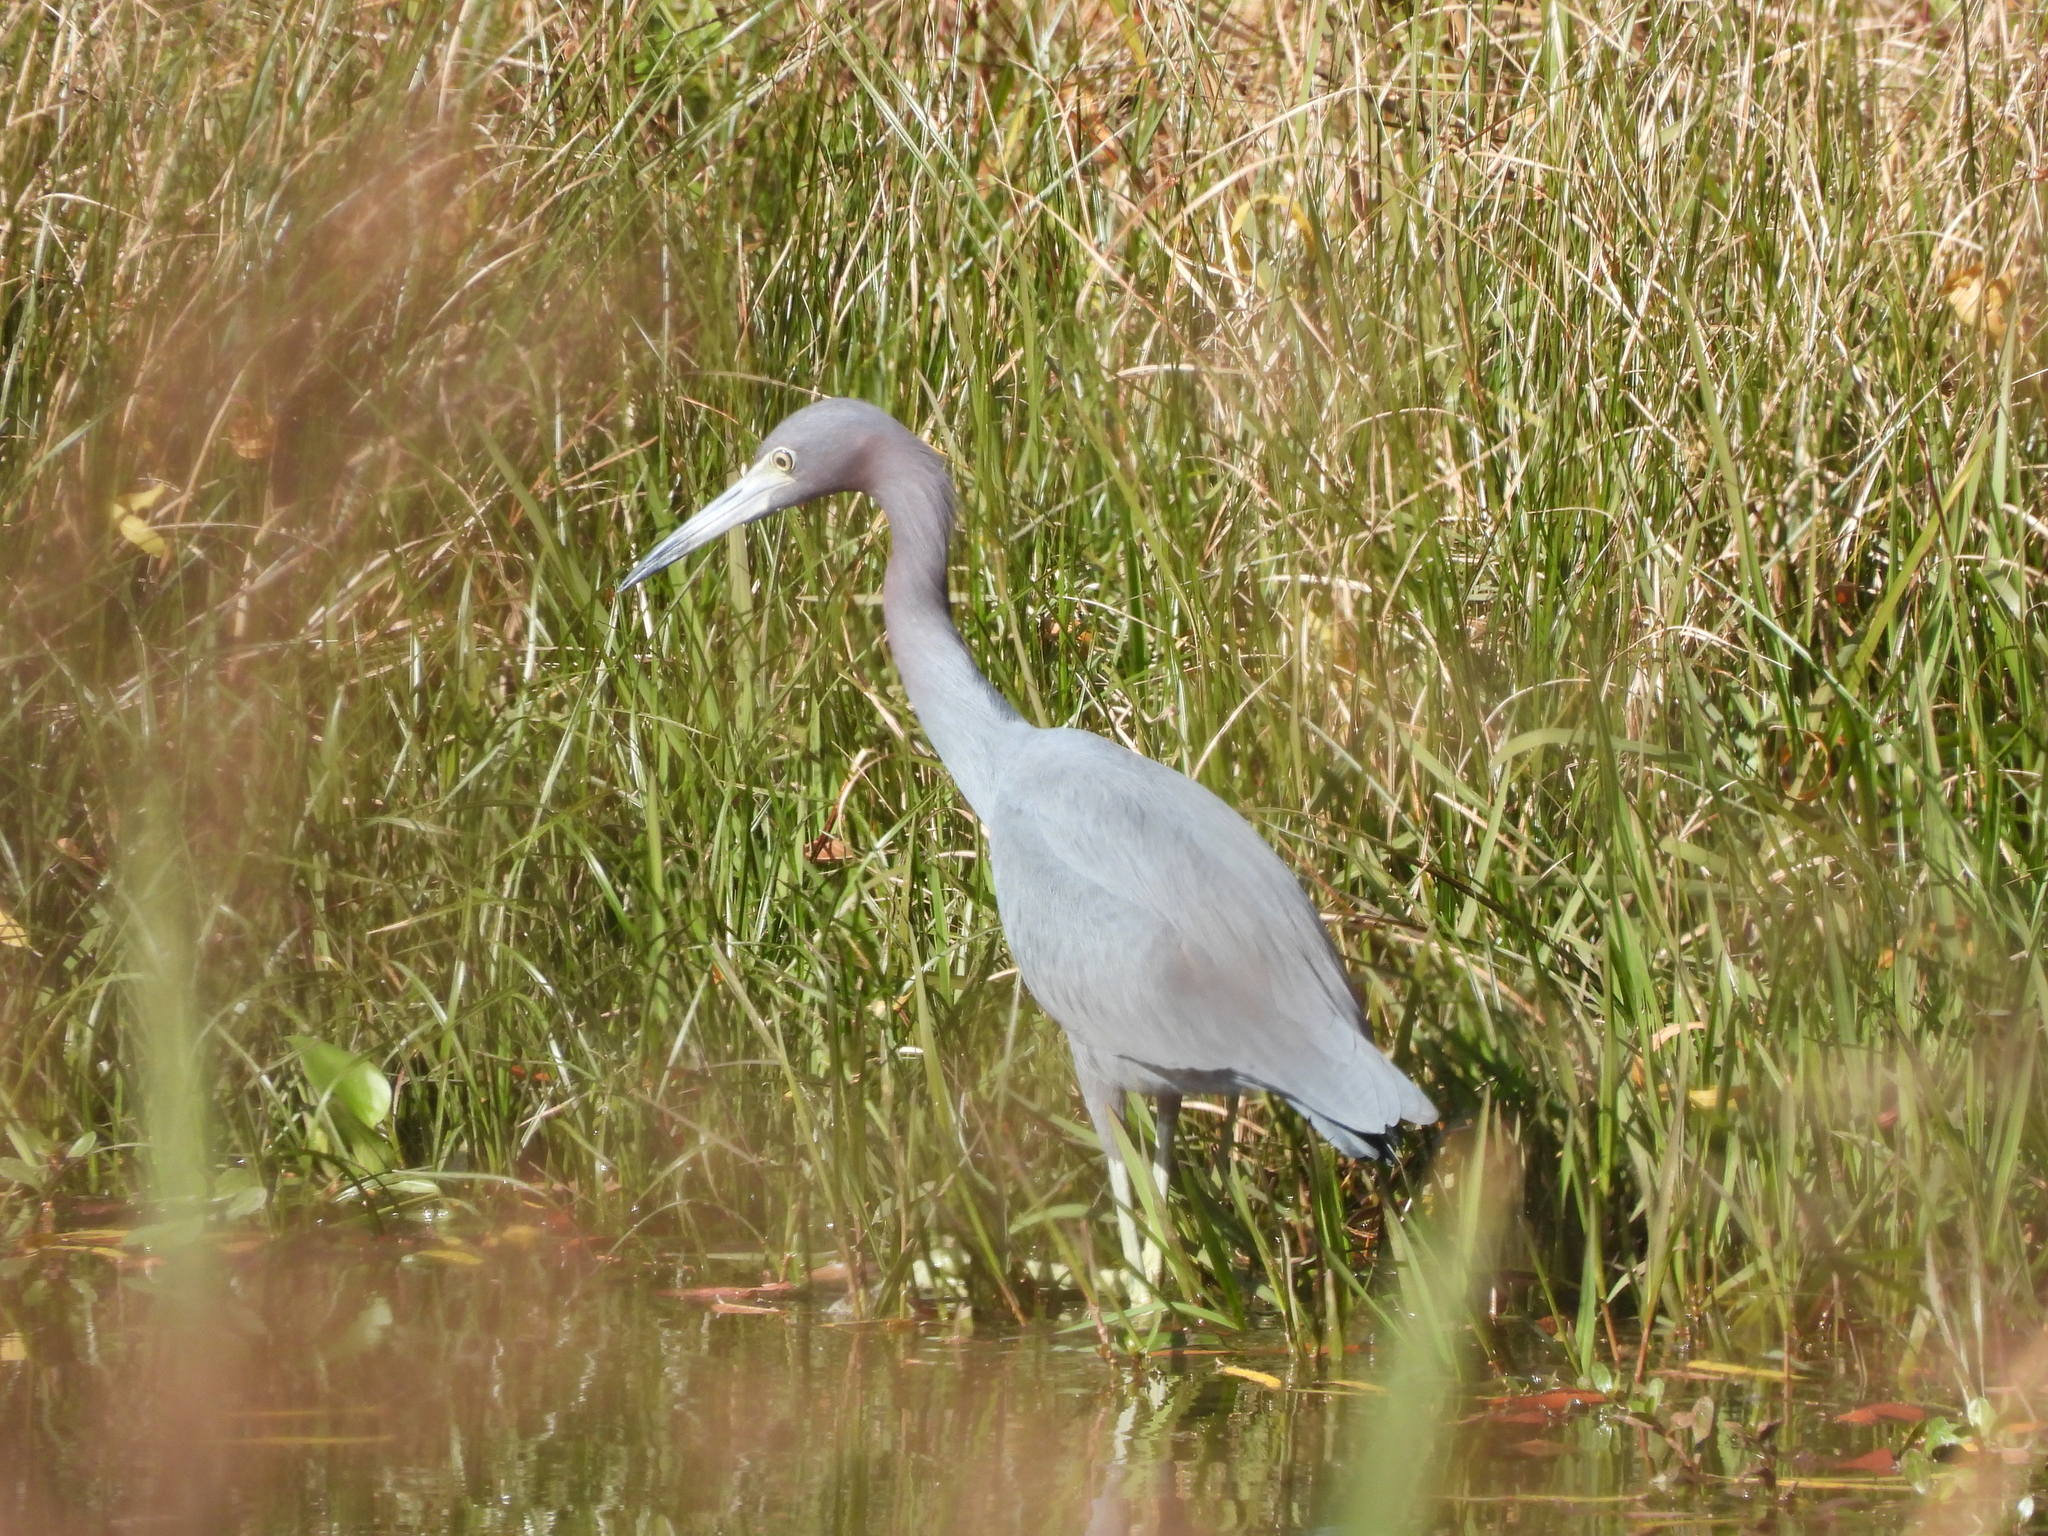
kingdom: Animalia
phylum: Chordata
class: Aves
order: Pelecaniformes
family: Ardeidae
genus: Egretta
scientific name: Egretta caerulea
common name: Little blue heron
